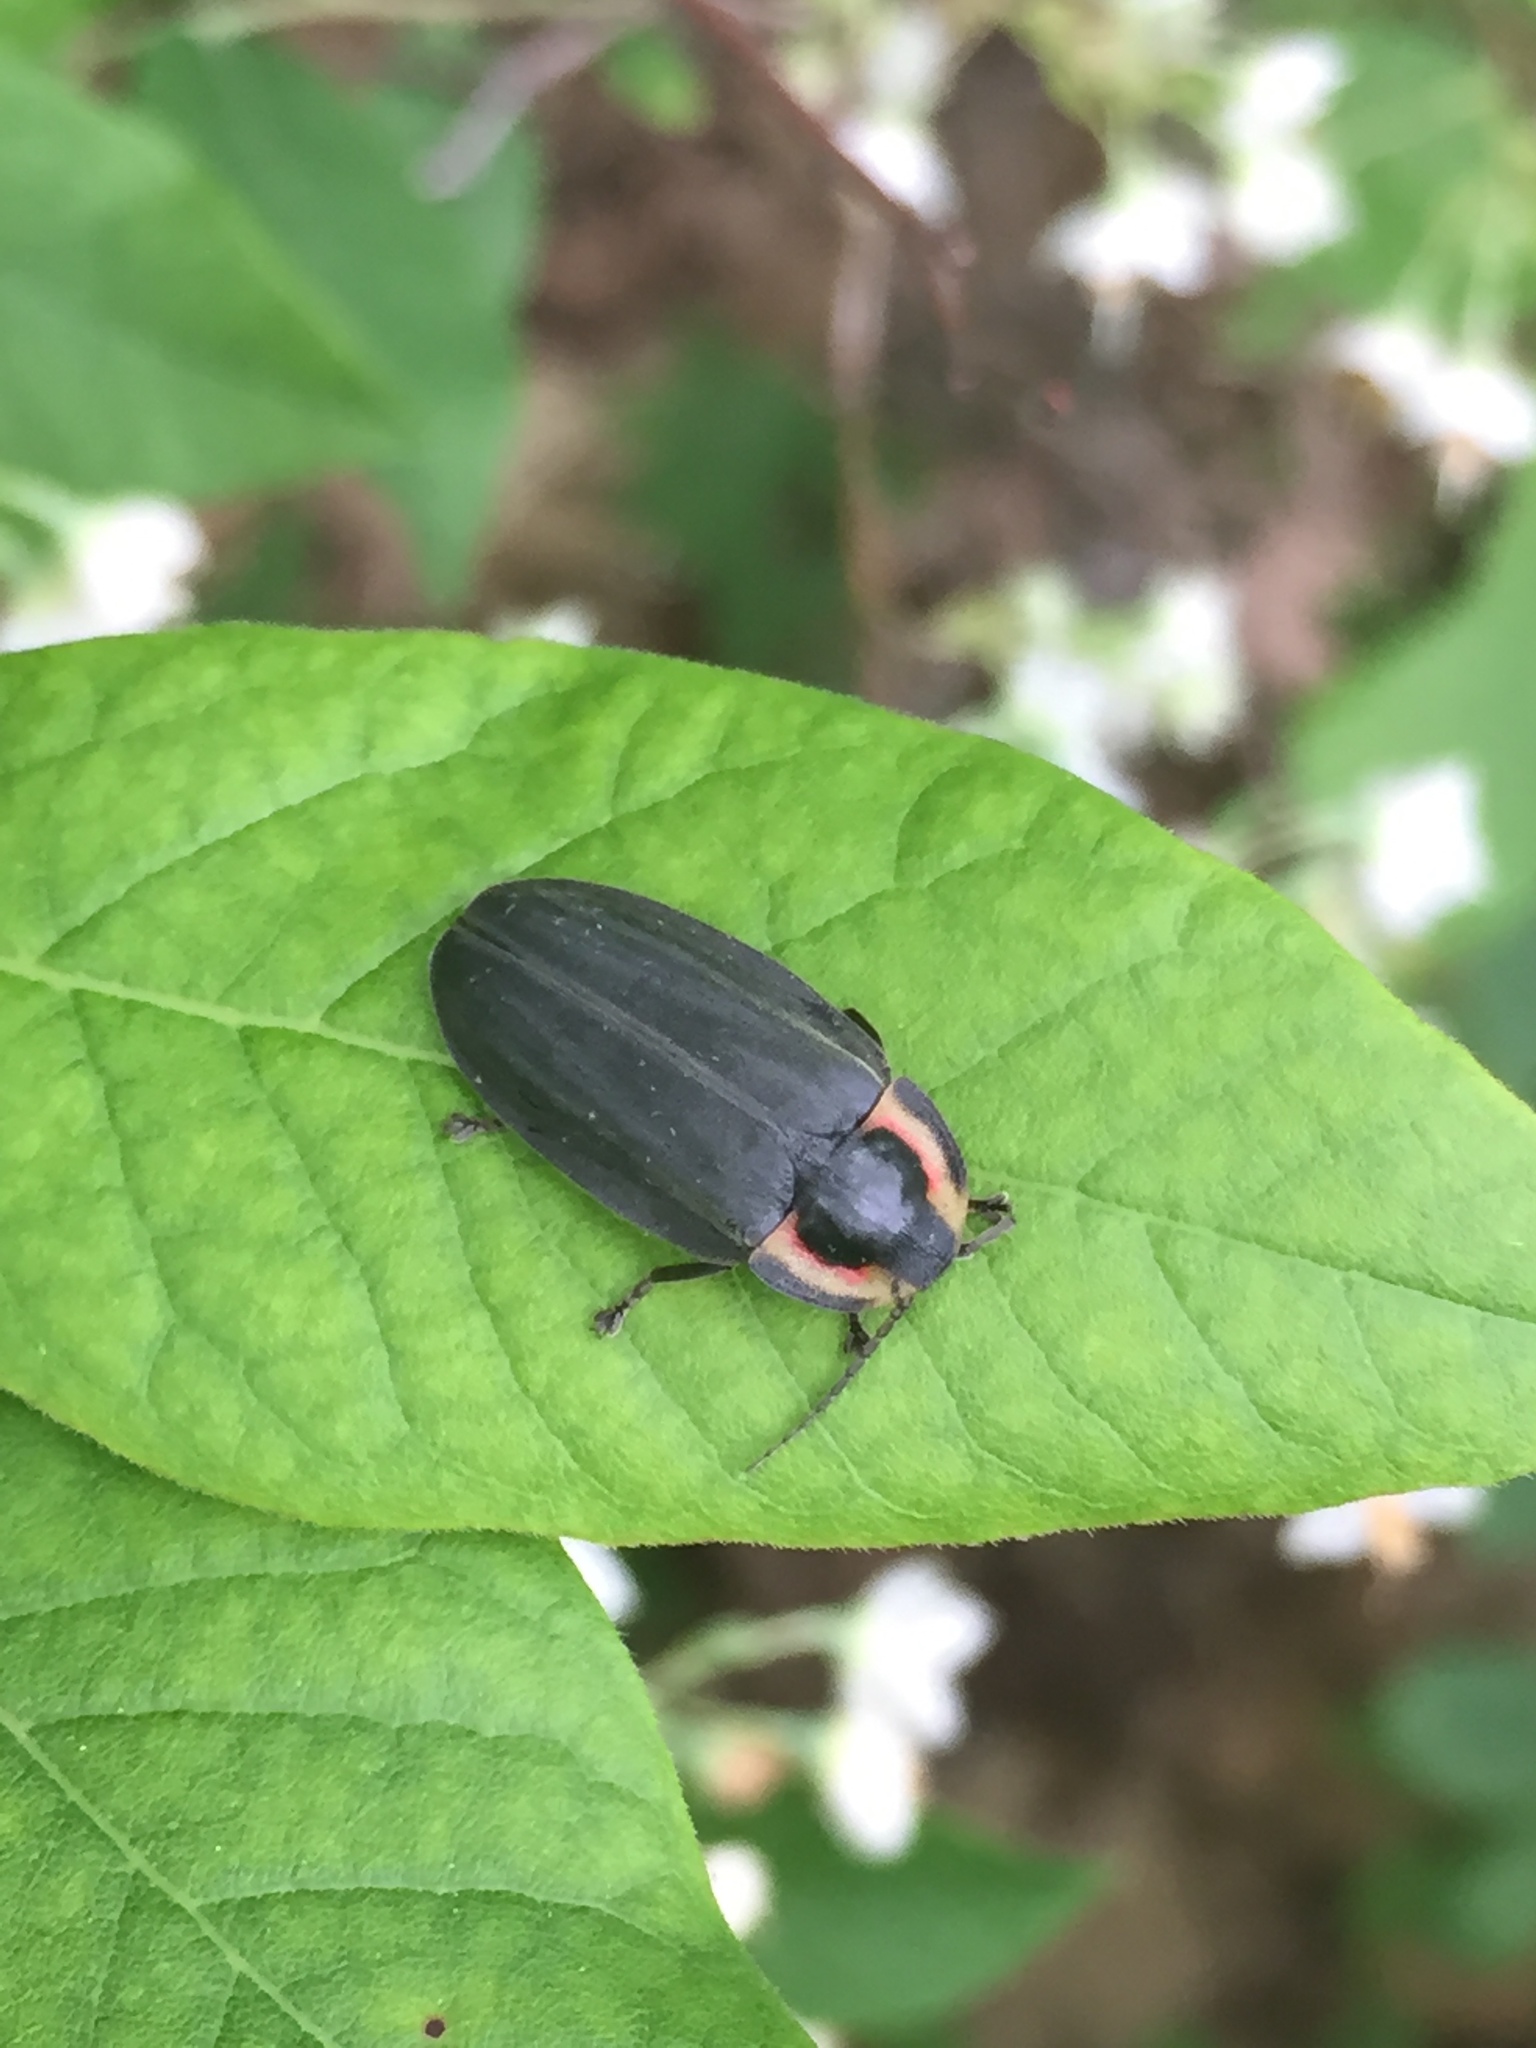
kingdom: Animalia
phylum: Arthropoda
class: Insecta
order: Coleoptera
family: Lampyridae
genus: Photinus
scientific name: Photinus corrusca
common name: Winter firefly
